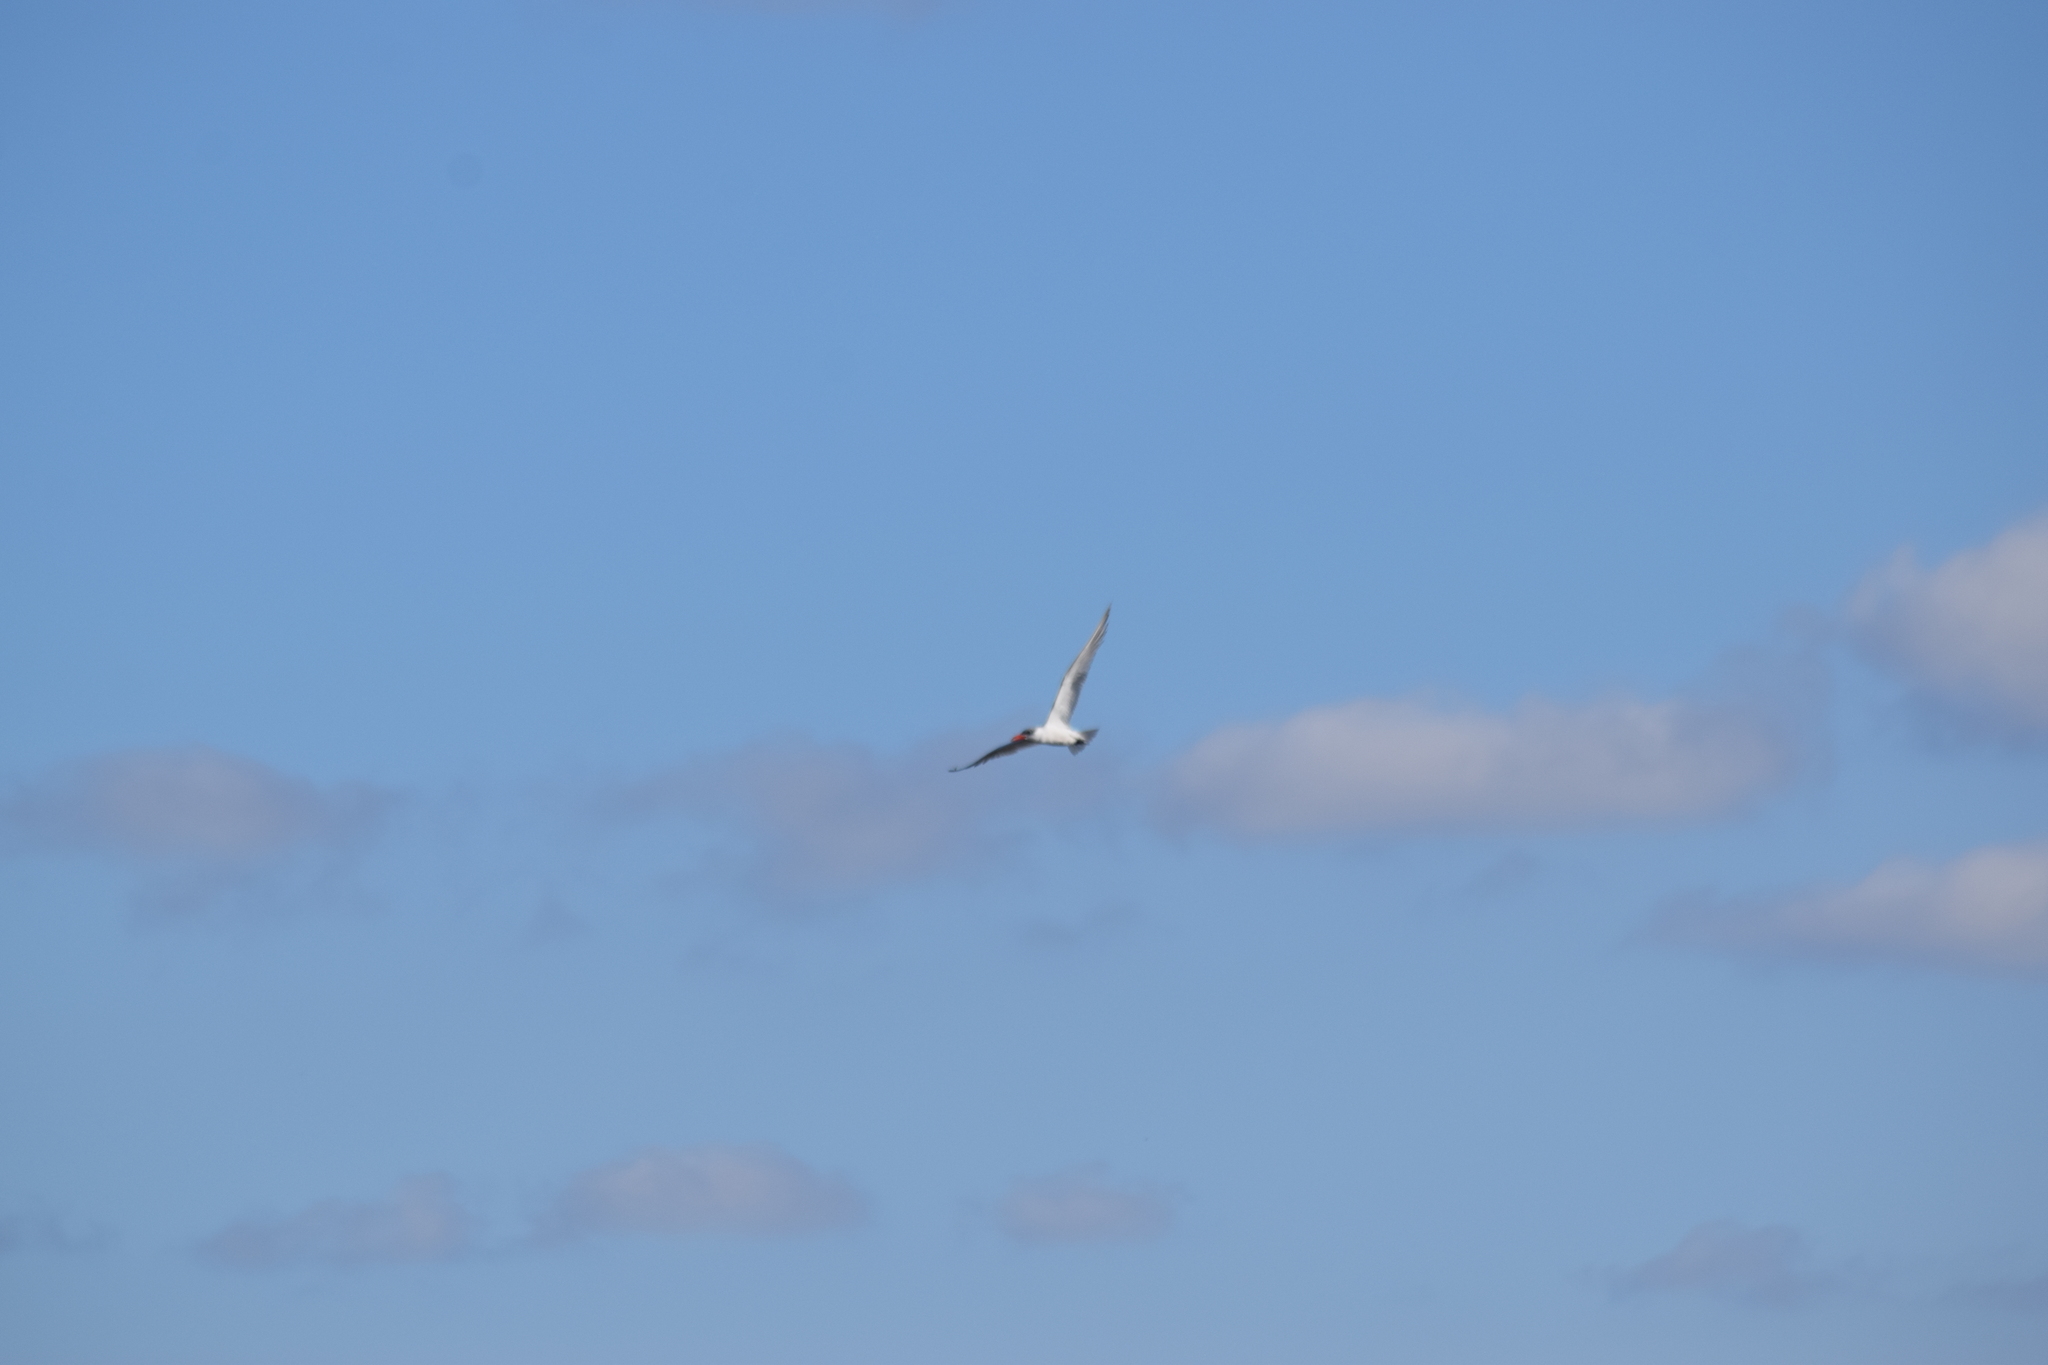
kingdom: Animalia
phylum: Chordata
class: Aves
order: Charadriiformes
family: Laridae
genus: Hydroprogne
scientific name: Hydroprogne caspia
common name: Caspian tern
